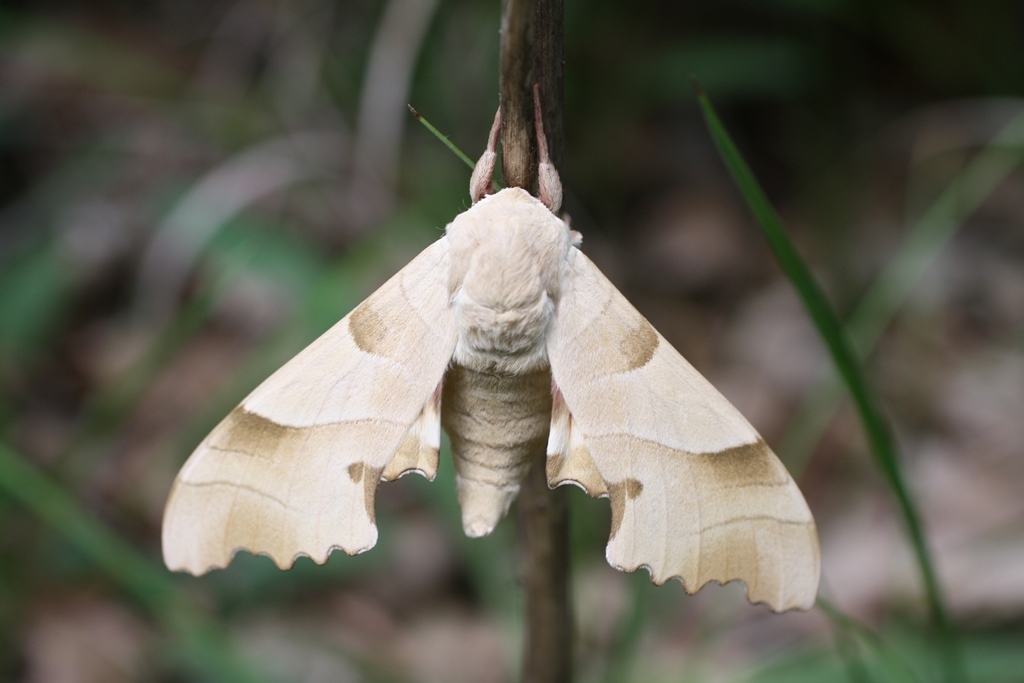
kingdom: Animalia
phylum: Arthropoda
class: Insecta
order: Lepidoptera
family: Sphingidae
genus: Marumba
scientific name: Marumba quercus
